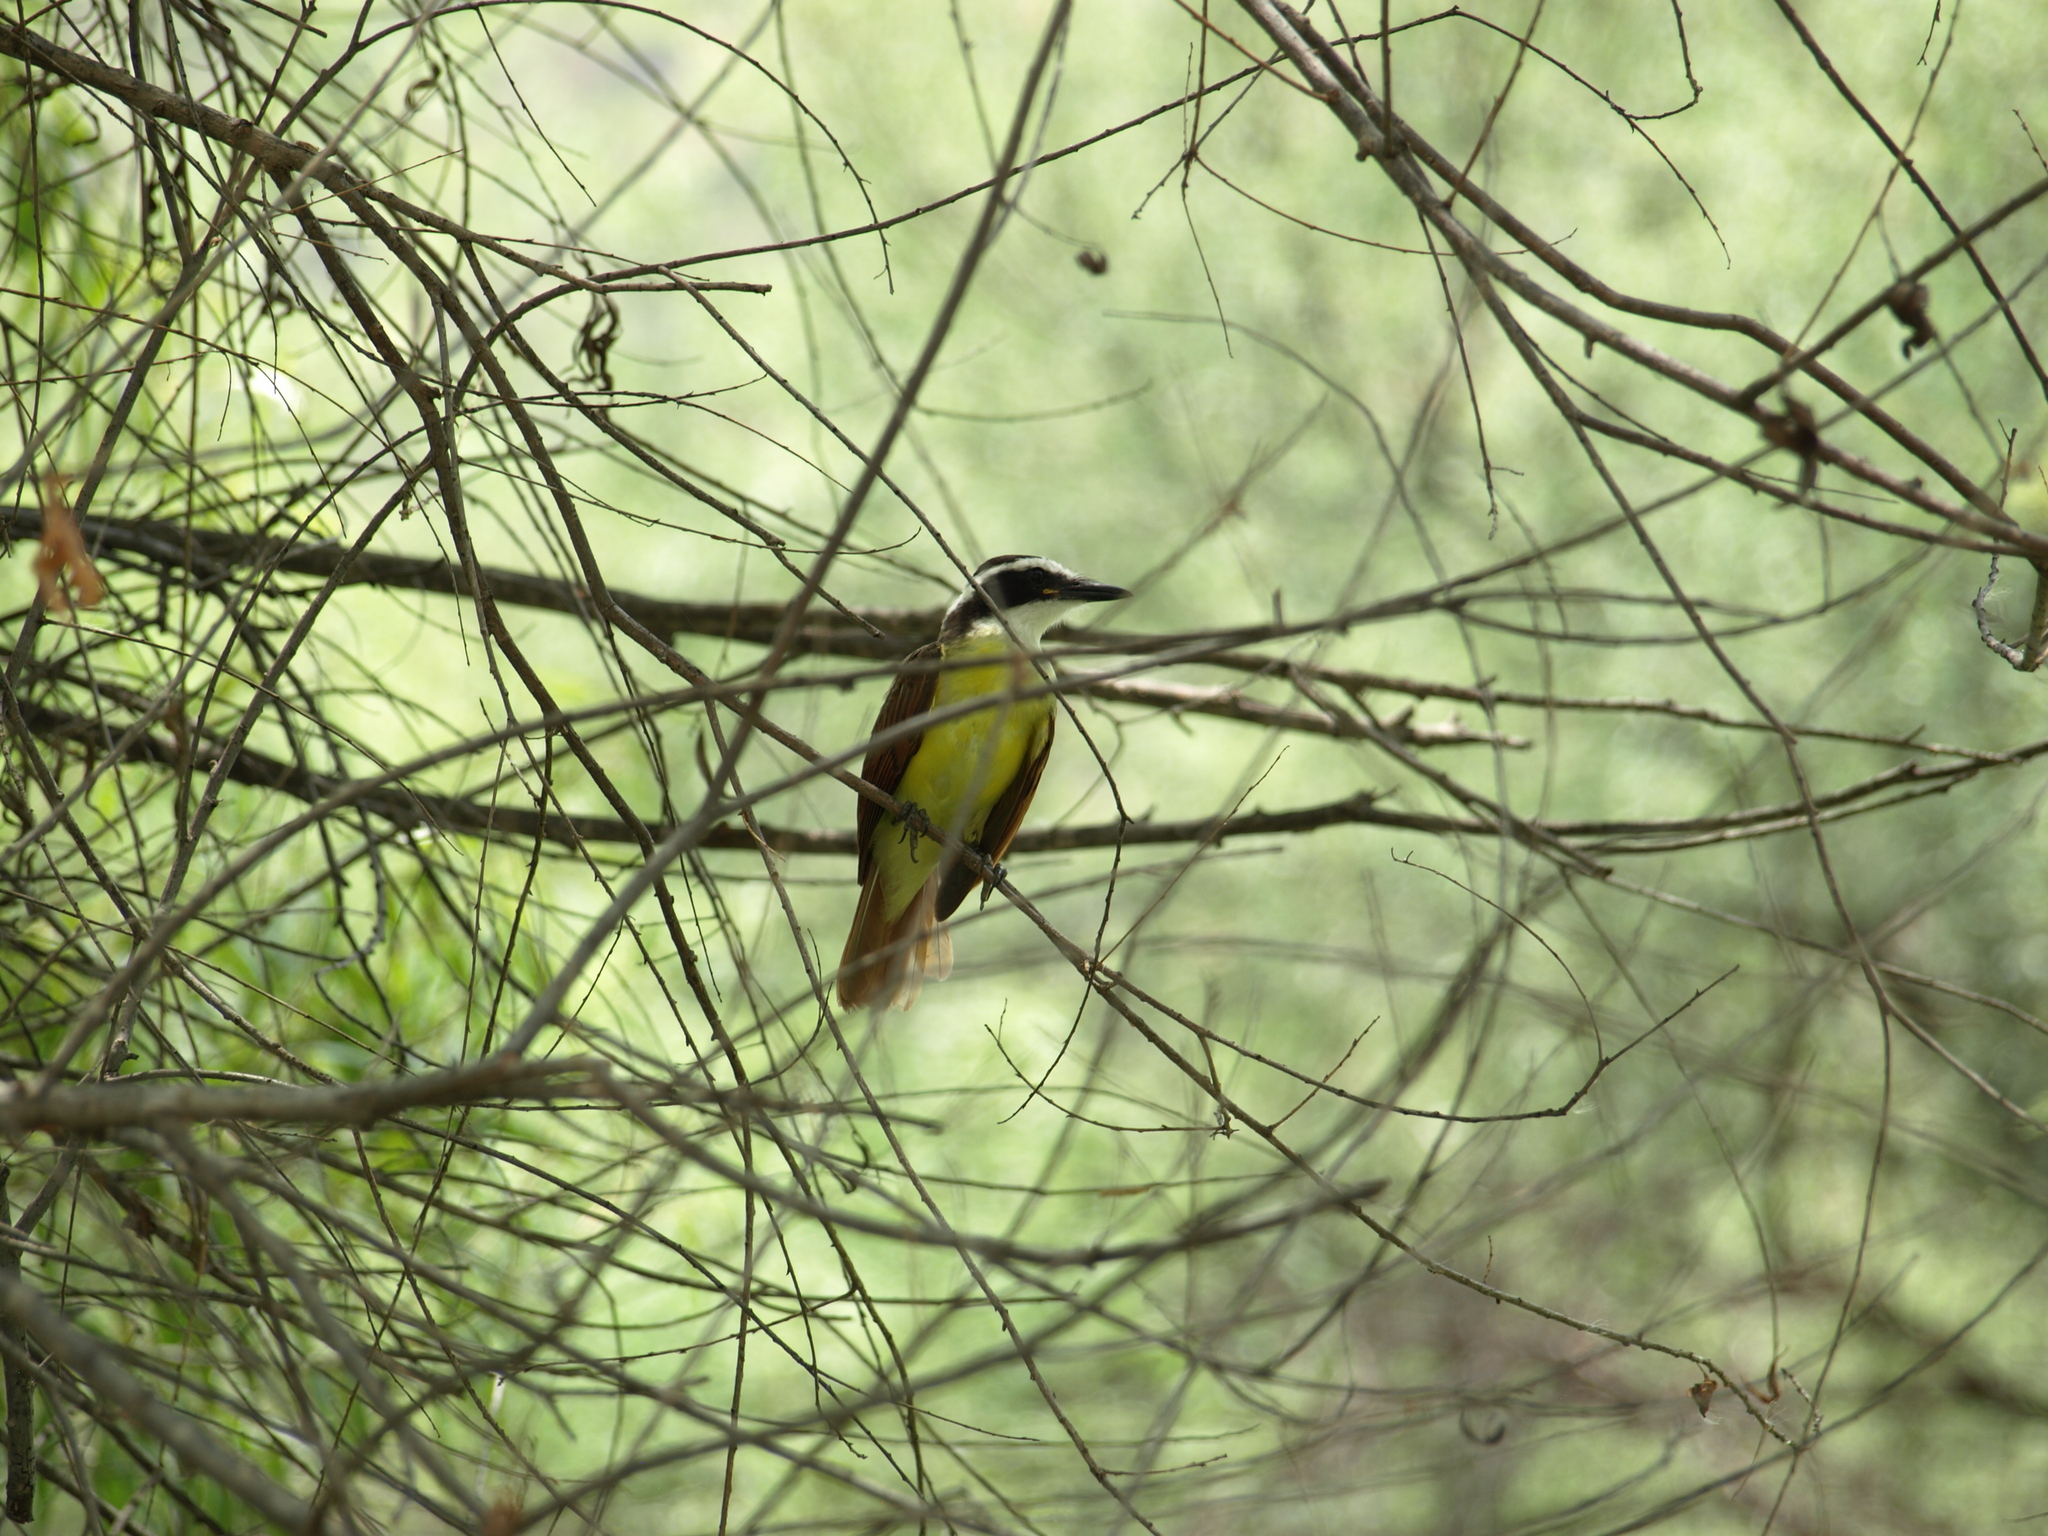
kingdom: Animalia
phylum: Chordata
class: Aves
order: Passeriformes
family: Tyrannidae
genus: Pitangus
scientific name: Pitangus sulphuratus
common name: Great kiskadee
